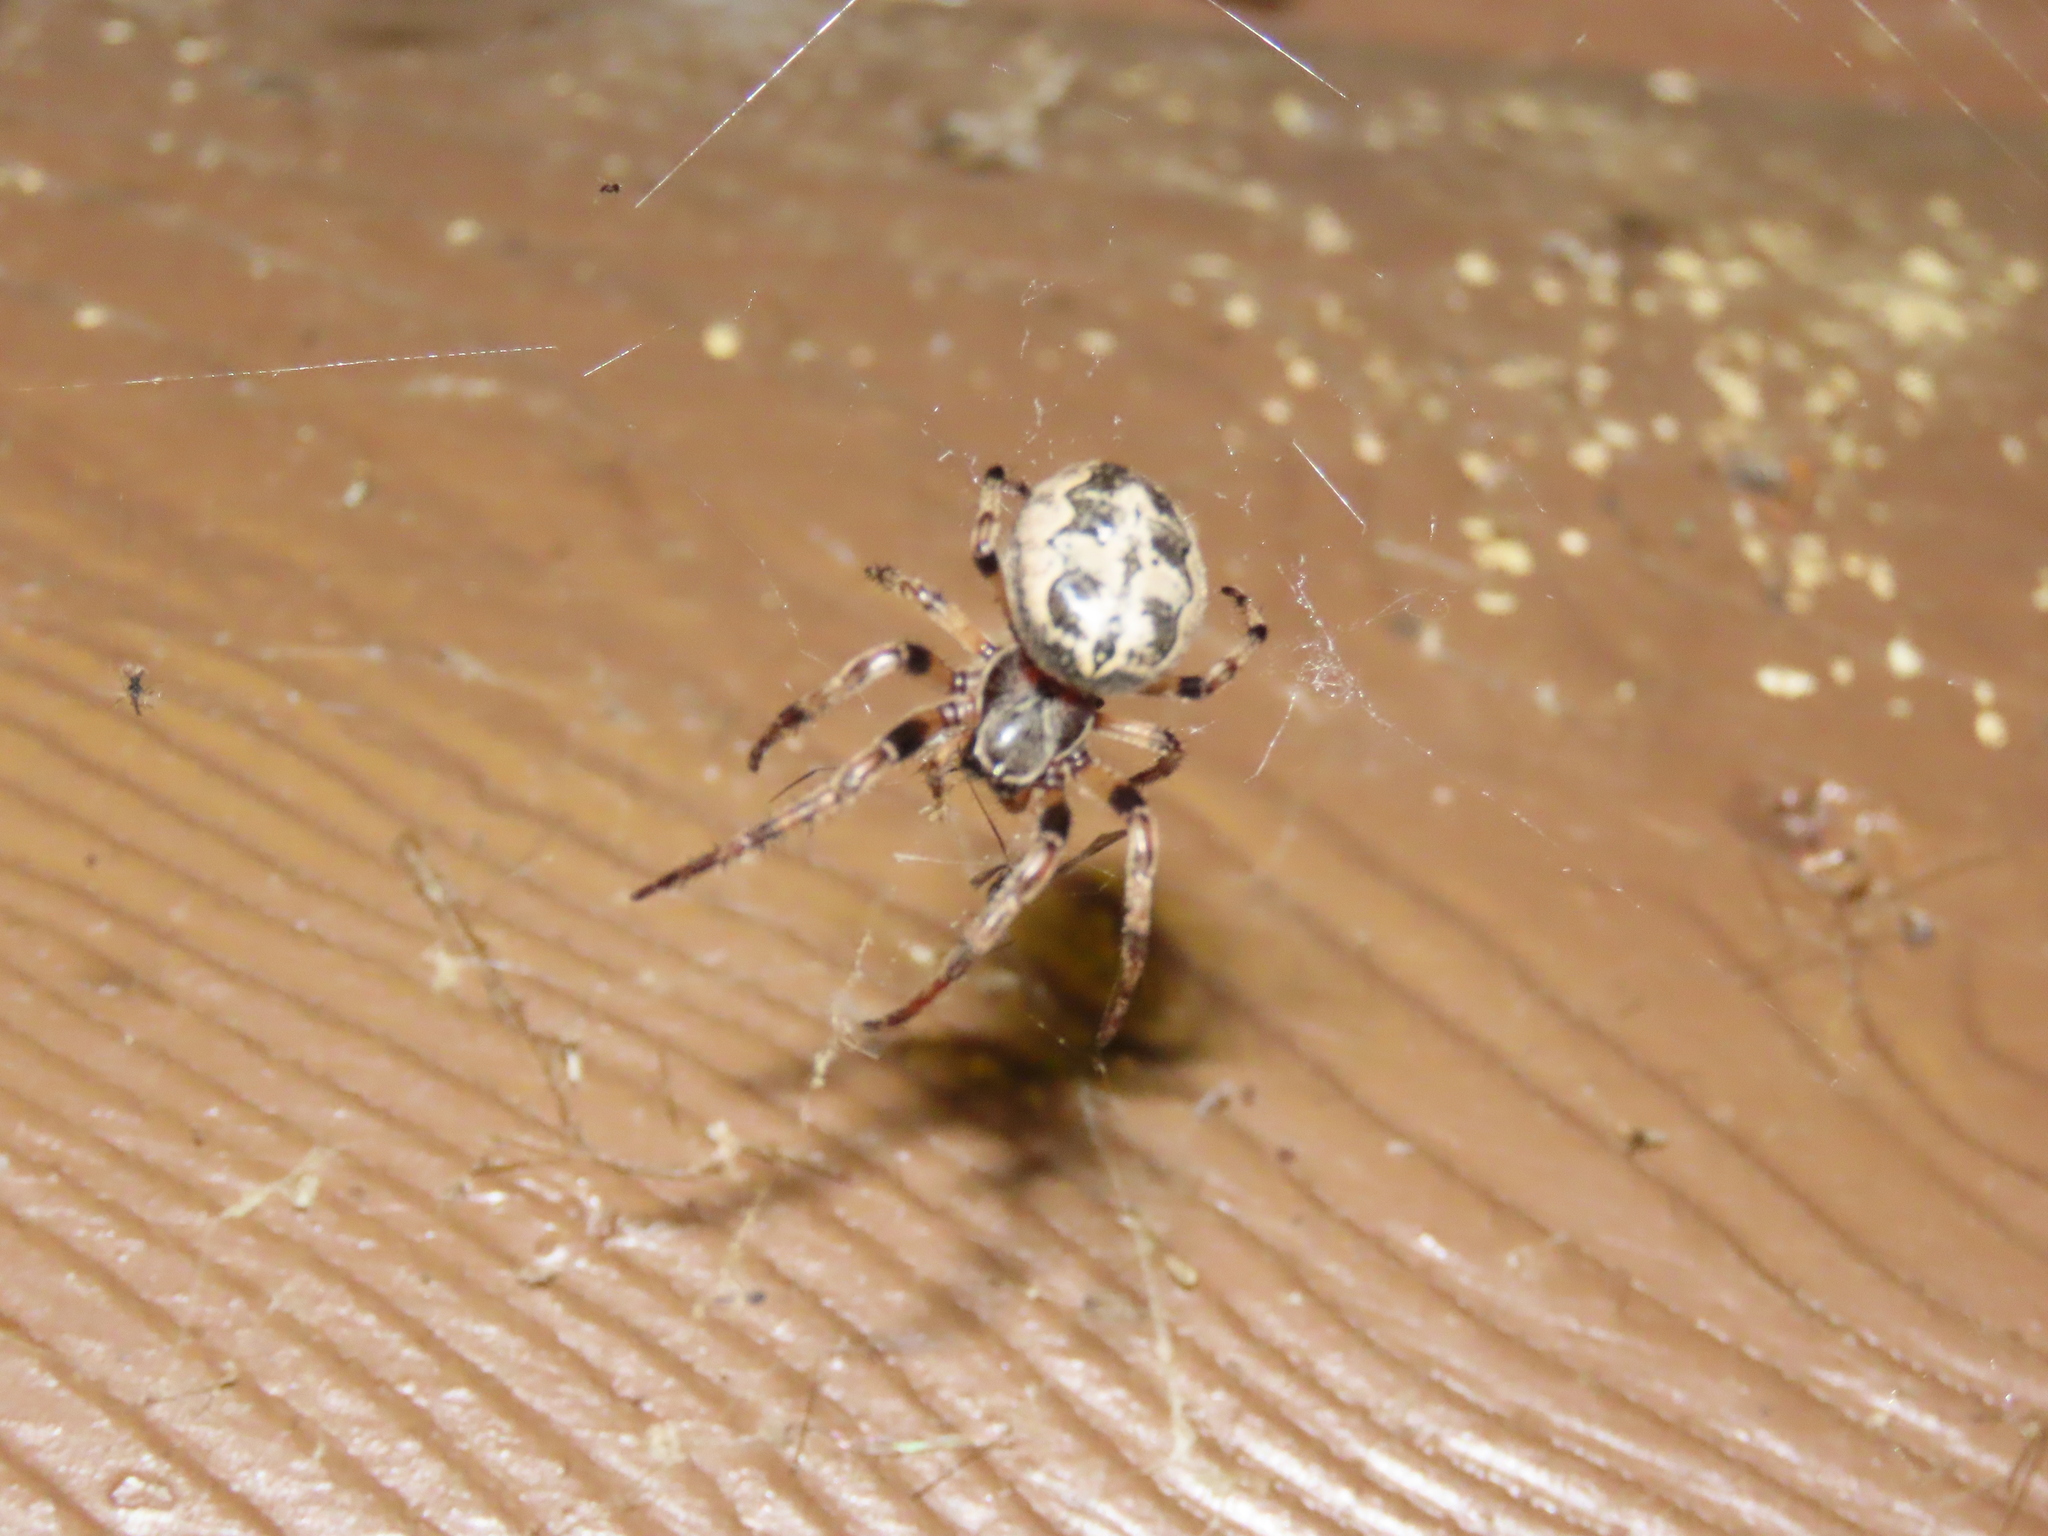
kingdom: Animalia
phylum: Arthropoda
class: Arachnida
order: Araneae
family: Araneidae
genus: Larinioides
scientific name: Larinioides cornutus
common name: Furrow orbweaver
